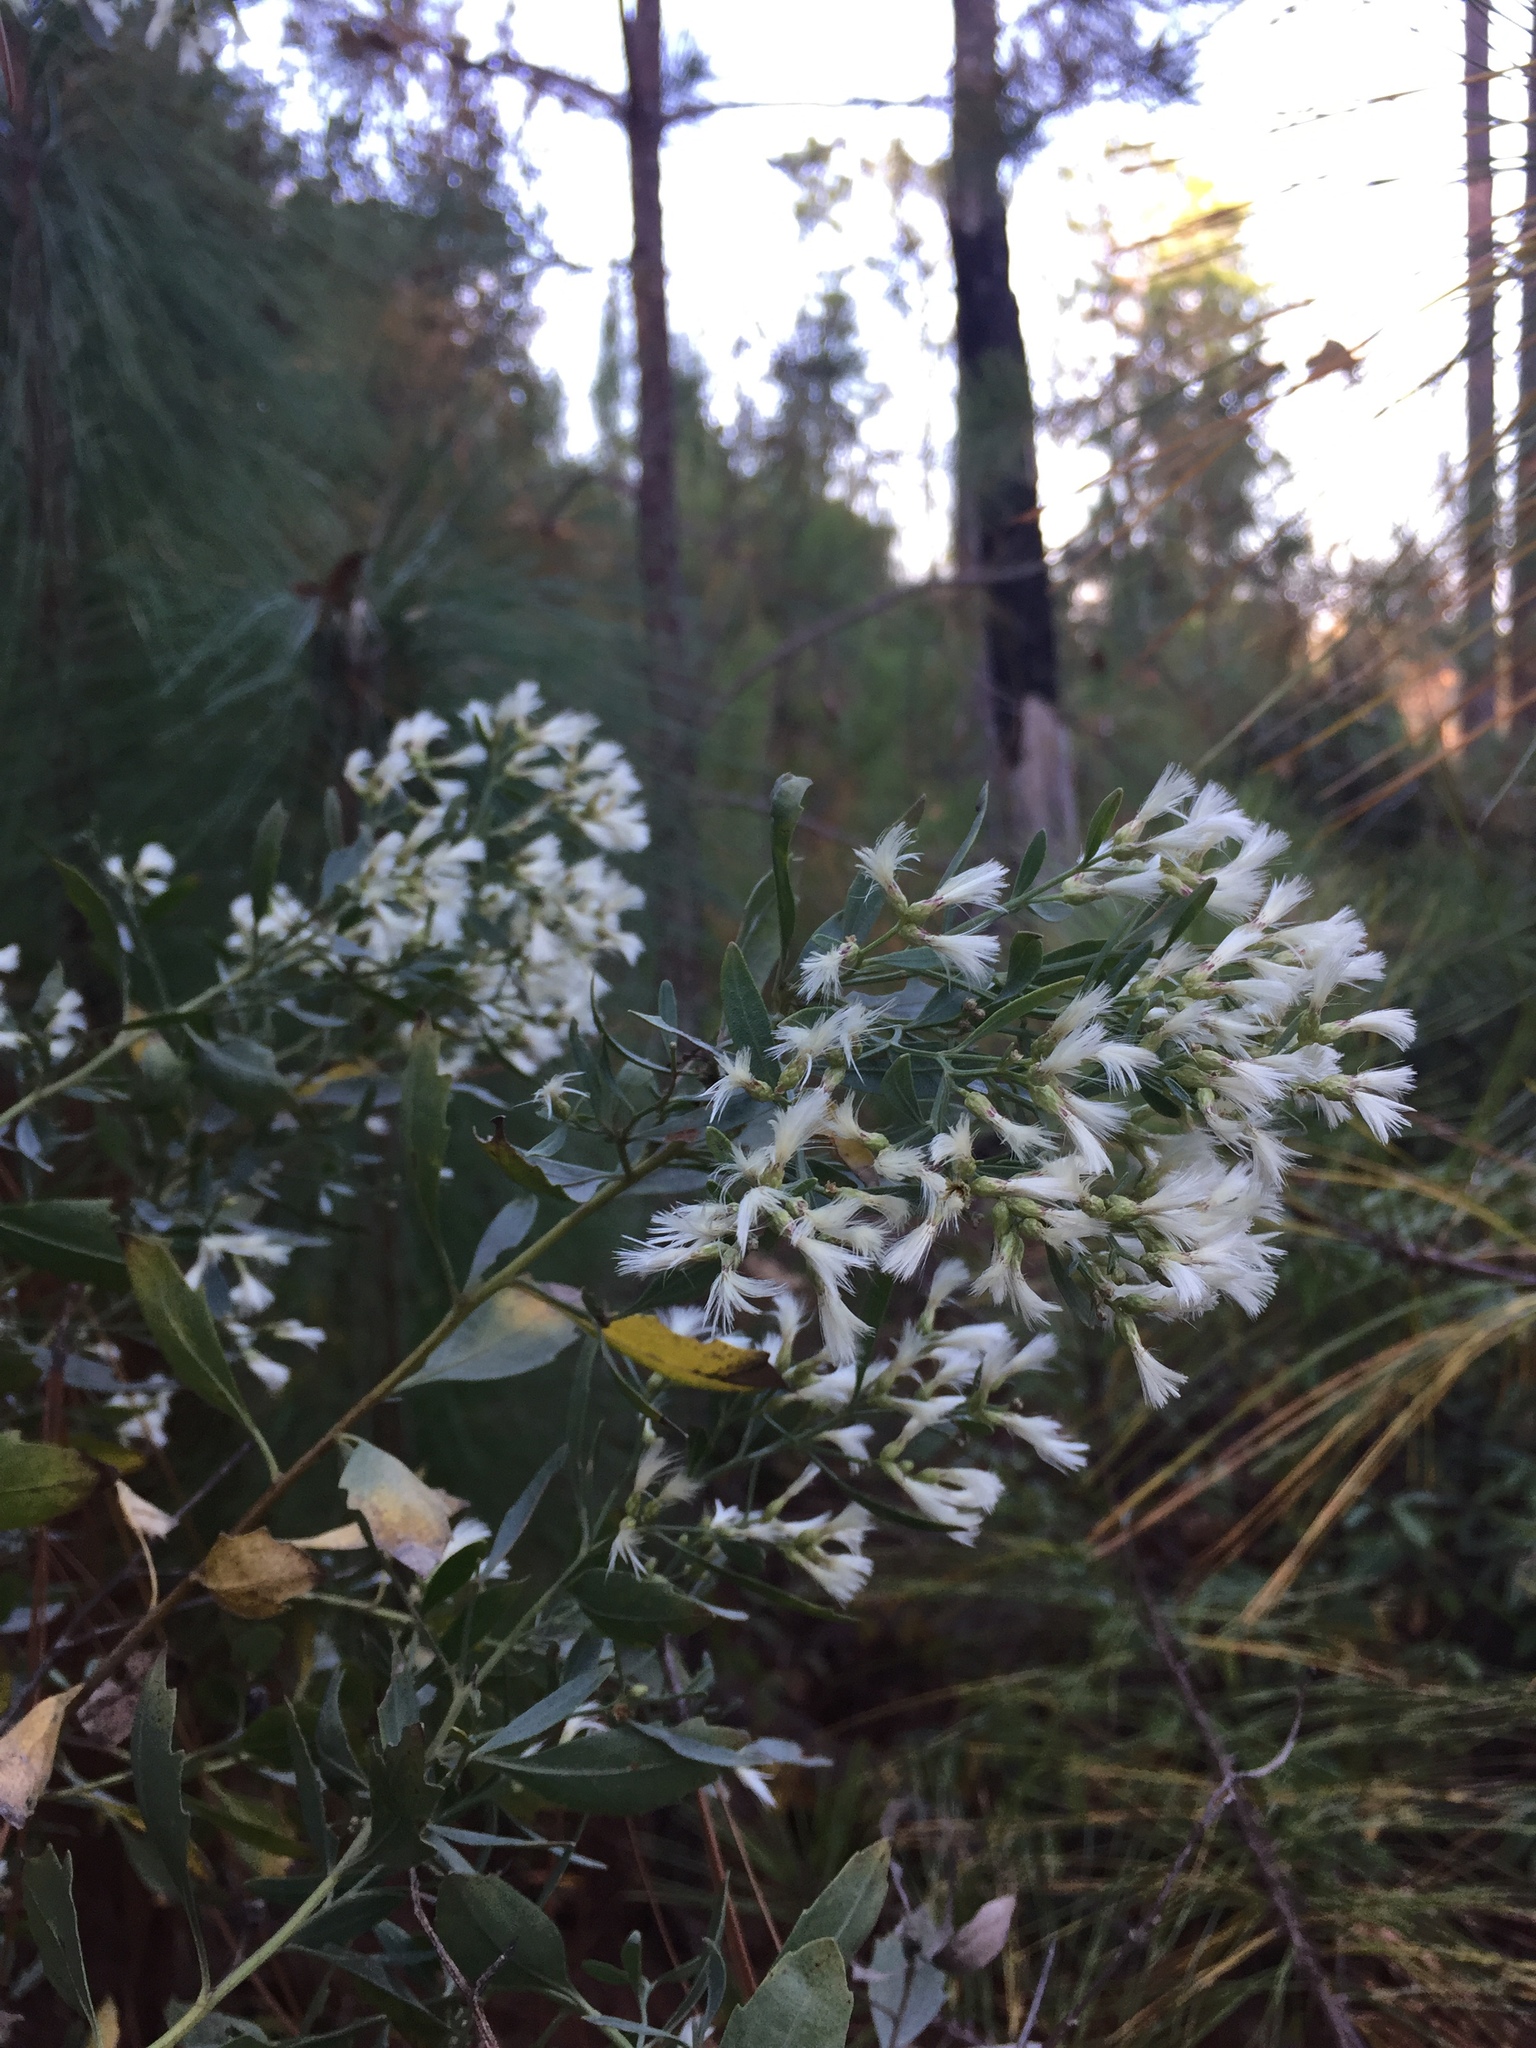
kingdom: Plantae
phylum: Tracheophyta
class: Magnoliopsida
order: Asterales
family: Asteraceae
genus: Baccharis
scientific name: Baccharis halimifolia
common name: Eastern baccharis
